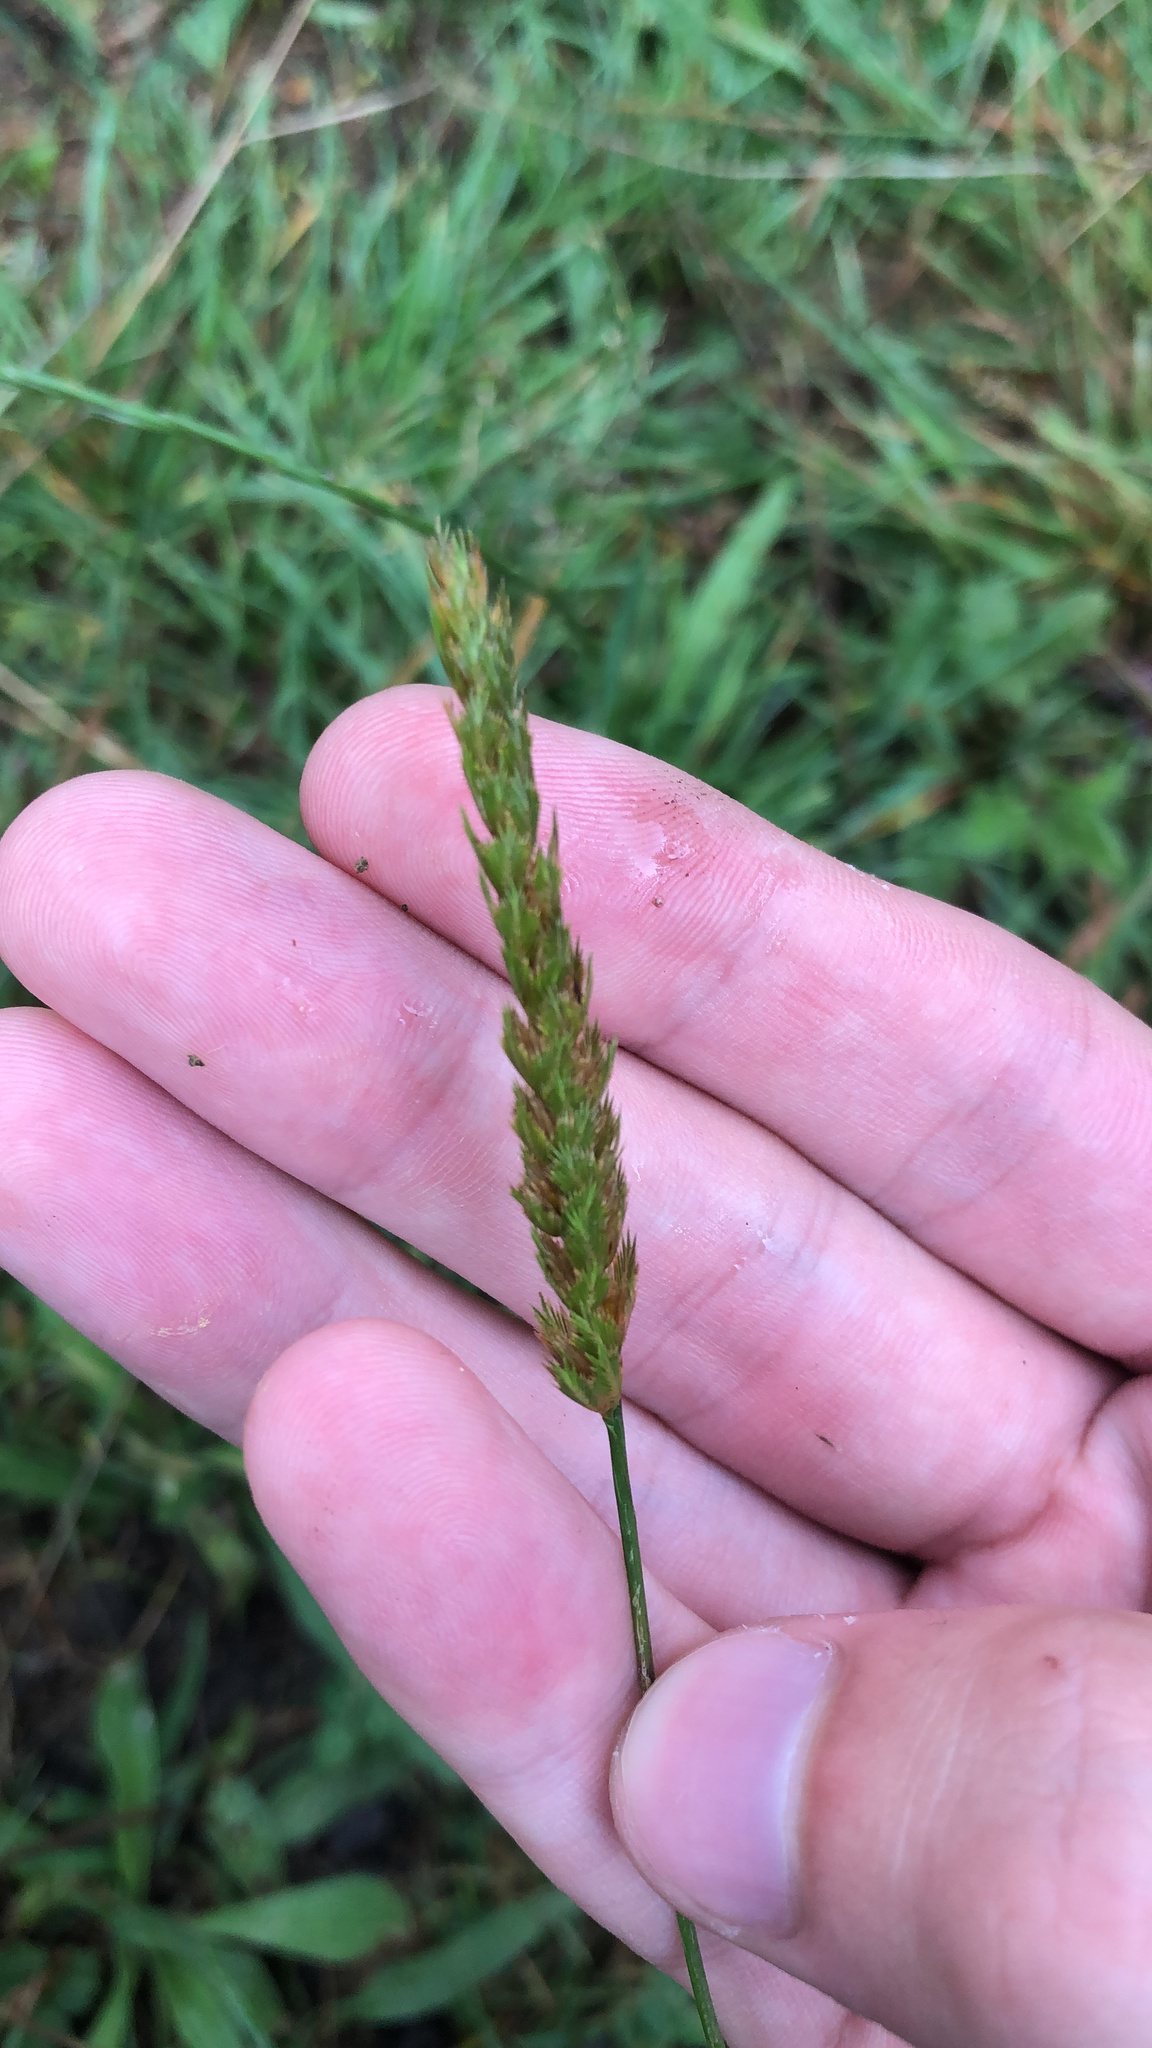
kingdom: Plantae
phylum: Tracheophyta
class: Liliopsida
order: Poales
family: Poaceae
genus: Cynosurus
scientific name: Cynosurus cristatus
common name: Crested dog's-tail
